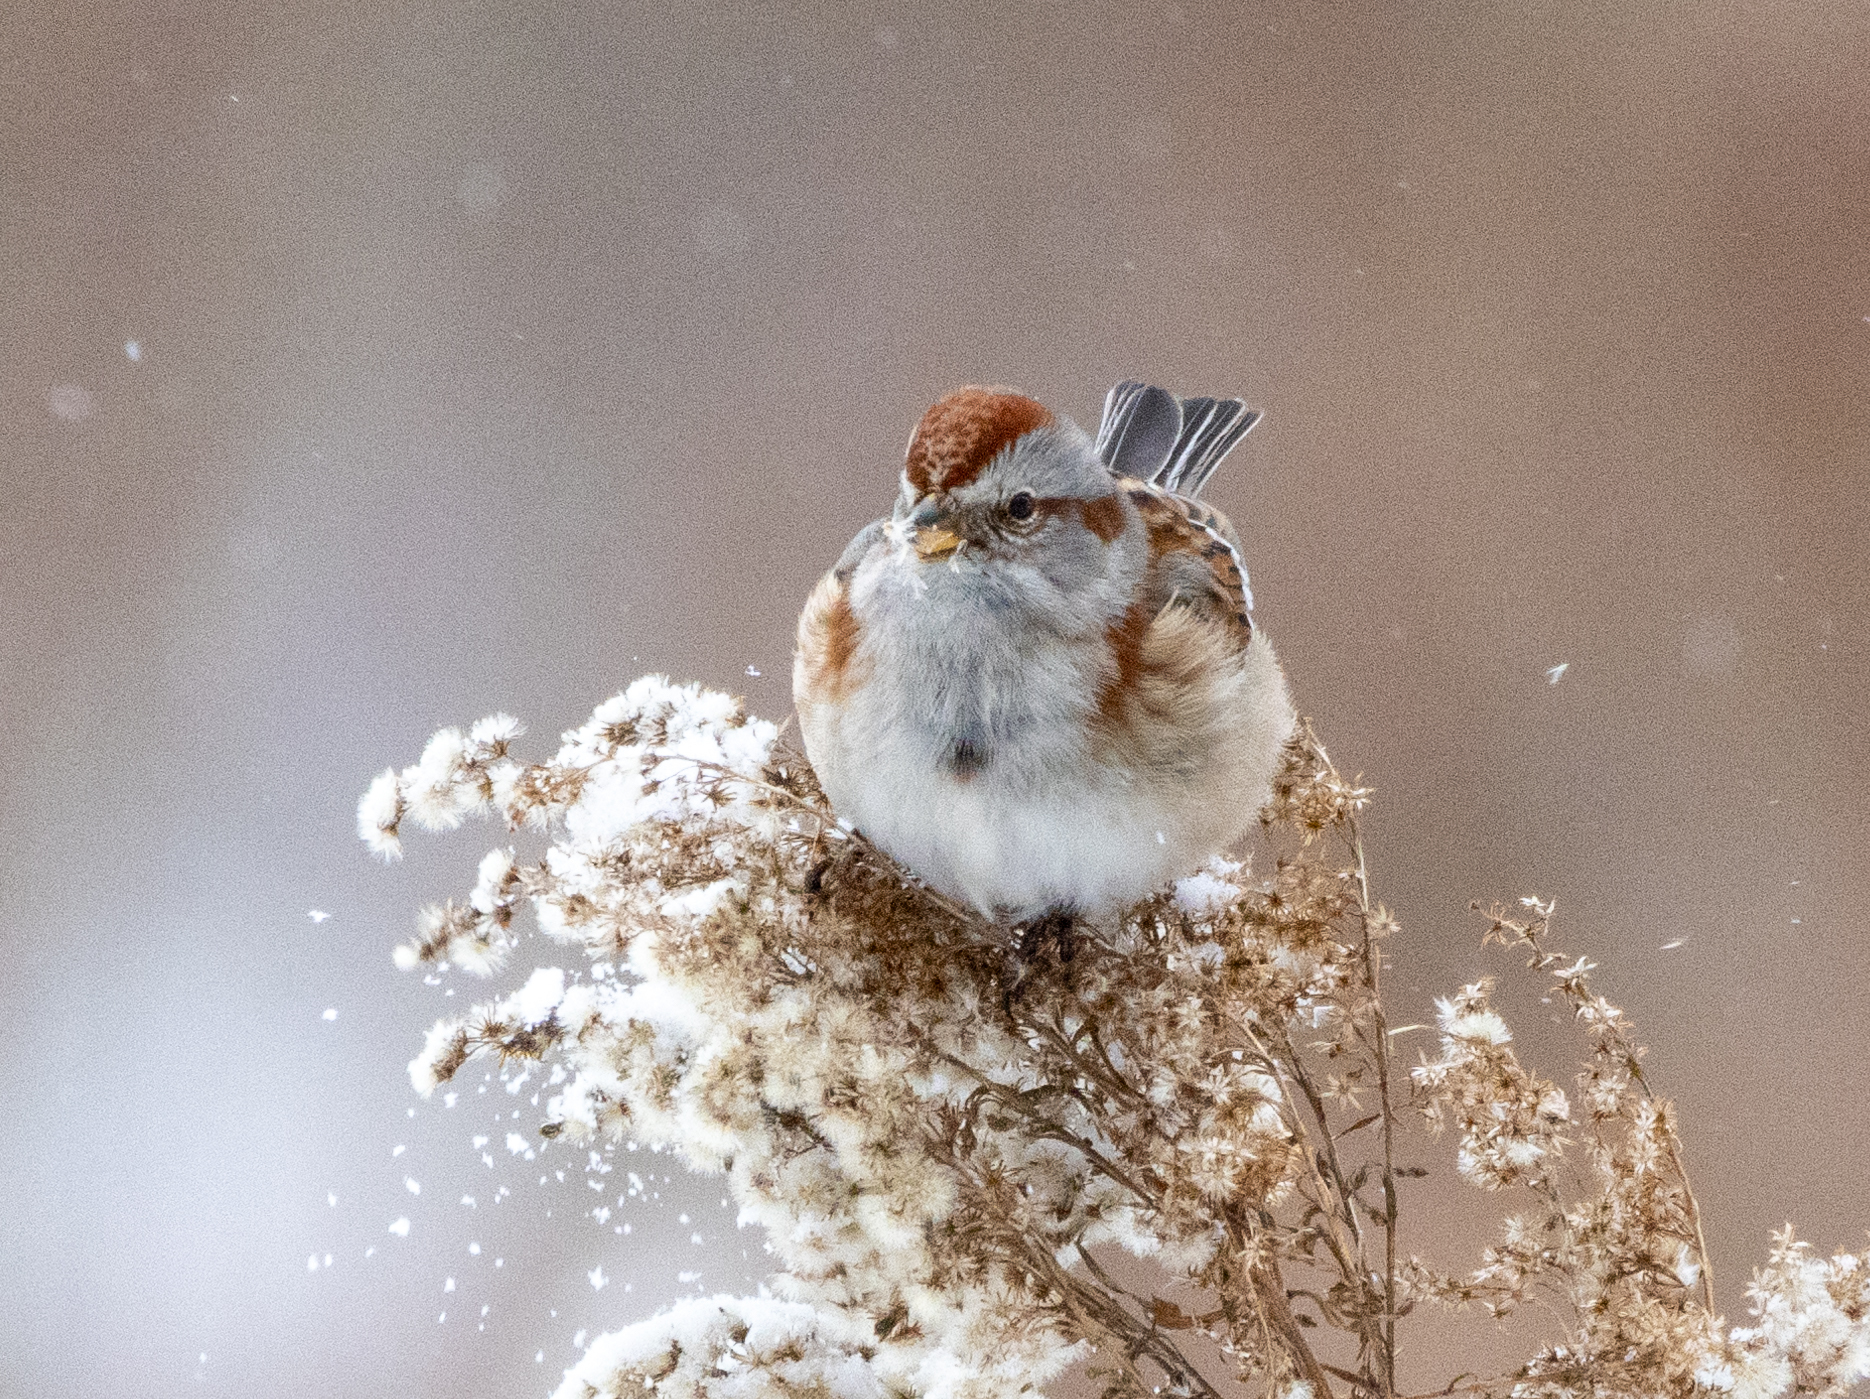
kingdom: Animalia
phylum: Chordata
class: Aves
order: Passeriformes
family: Passerellidae
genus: Spizelloides
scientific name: Spizelloides arborea
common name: American tree sparrow
